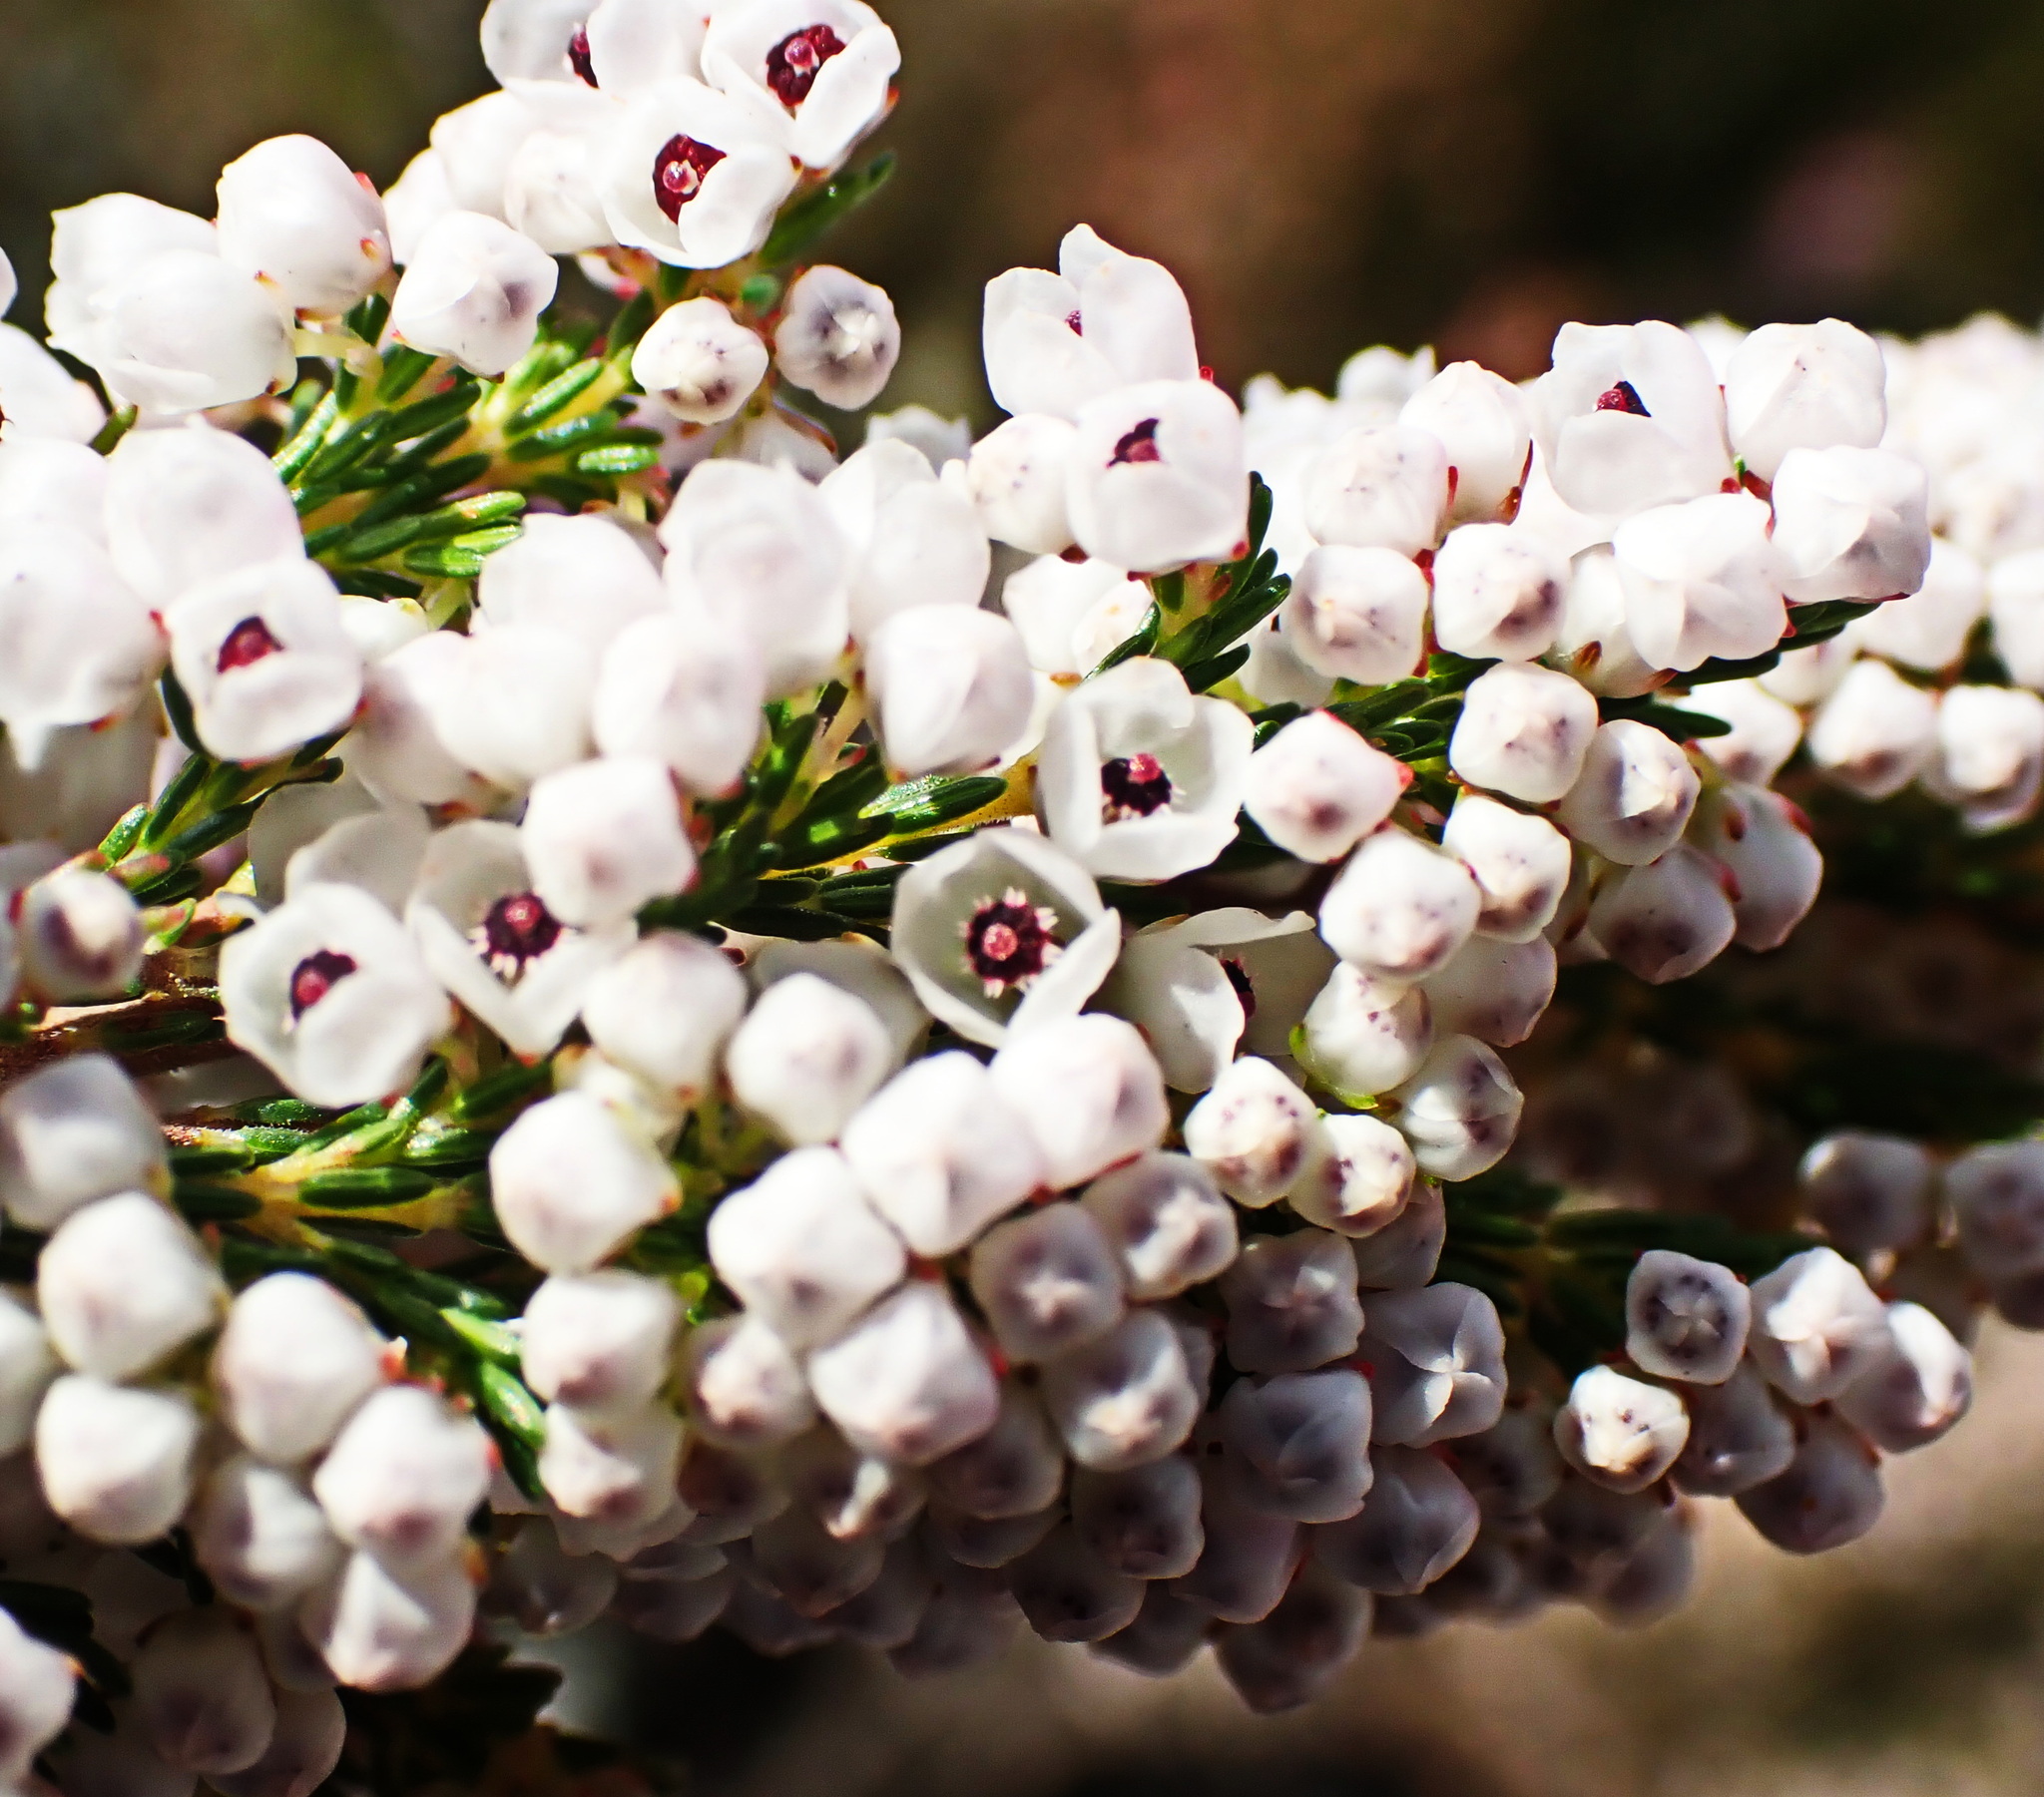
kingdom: Plantae
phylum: Tracheophyta
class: Magnoliopsida
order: Ericales
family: Ericaceae
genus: Erica
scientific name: Erica quadrangularis
